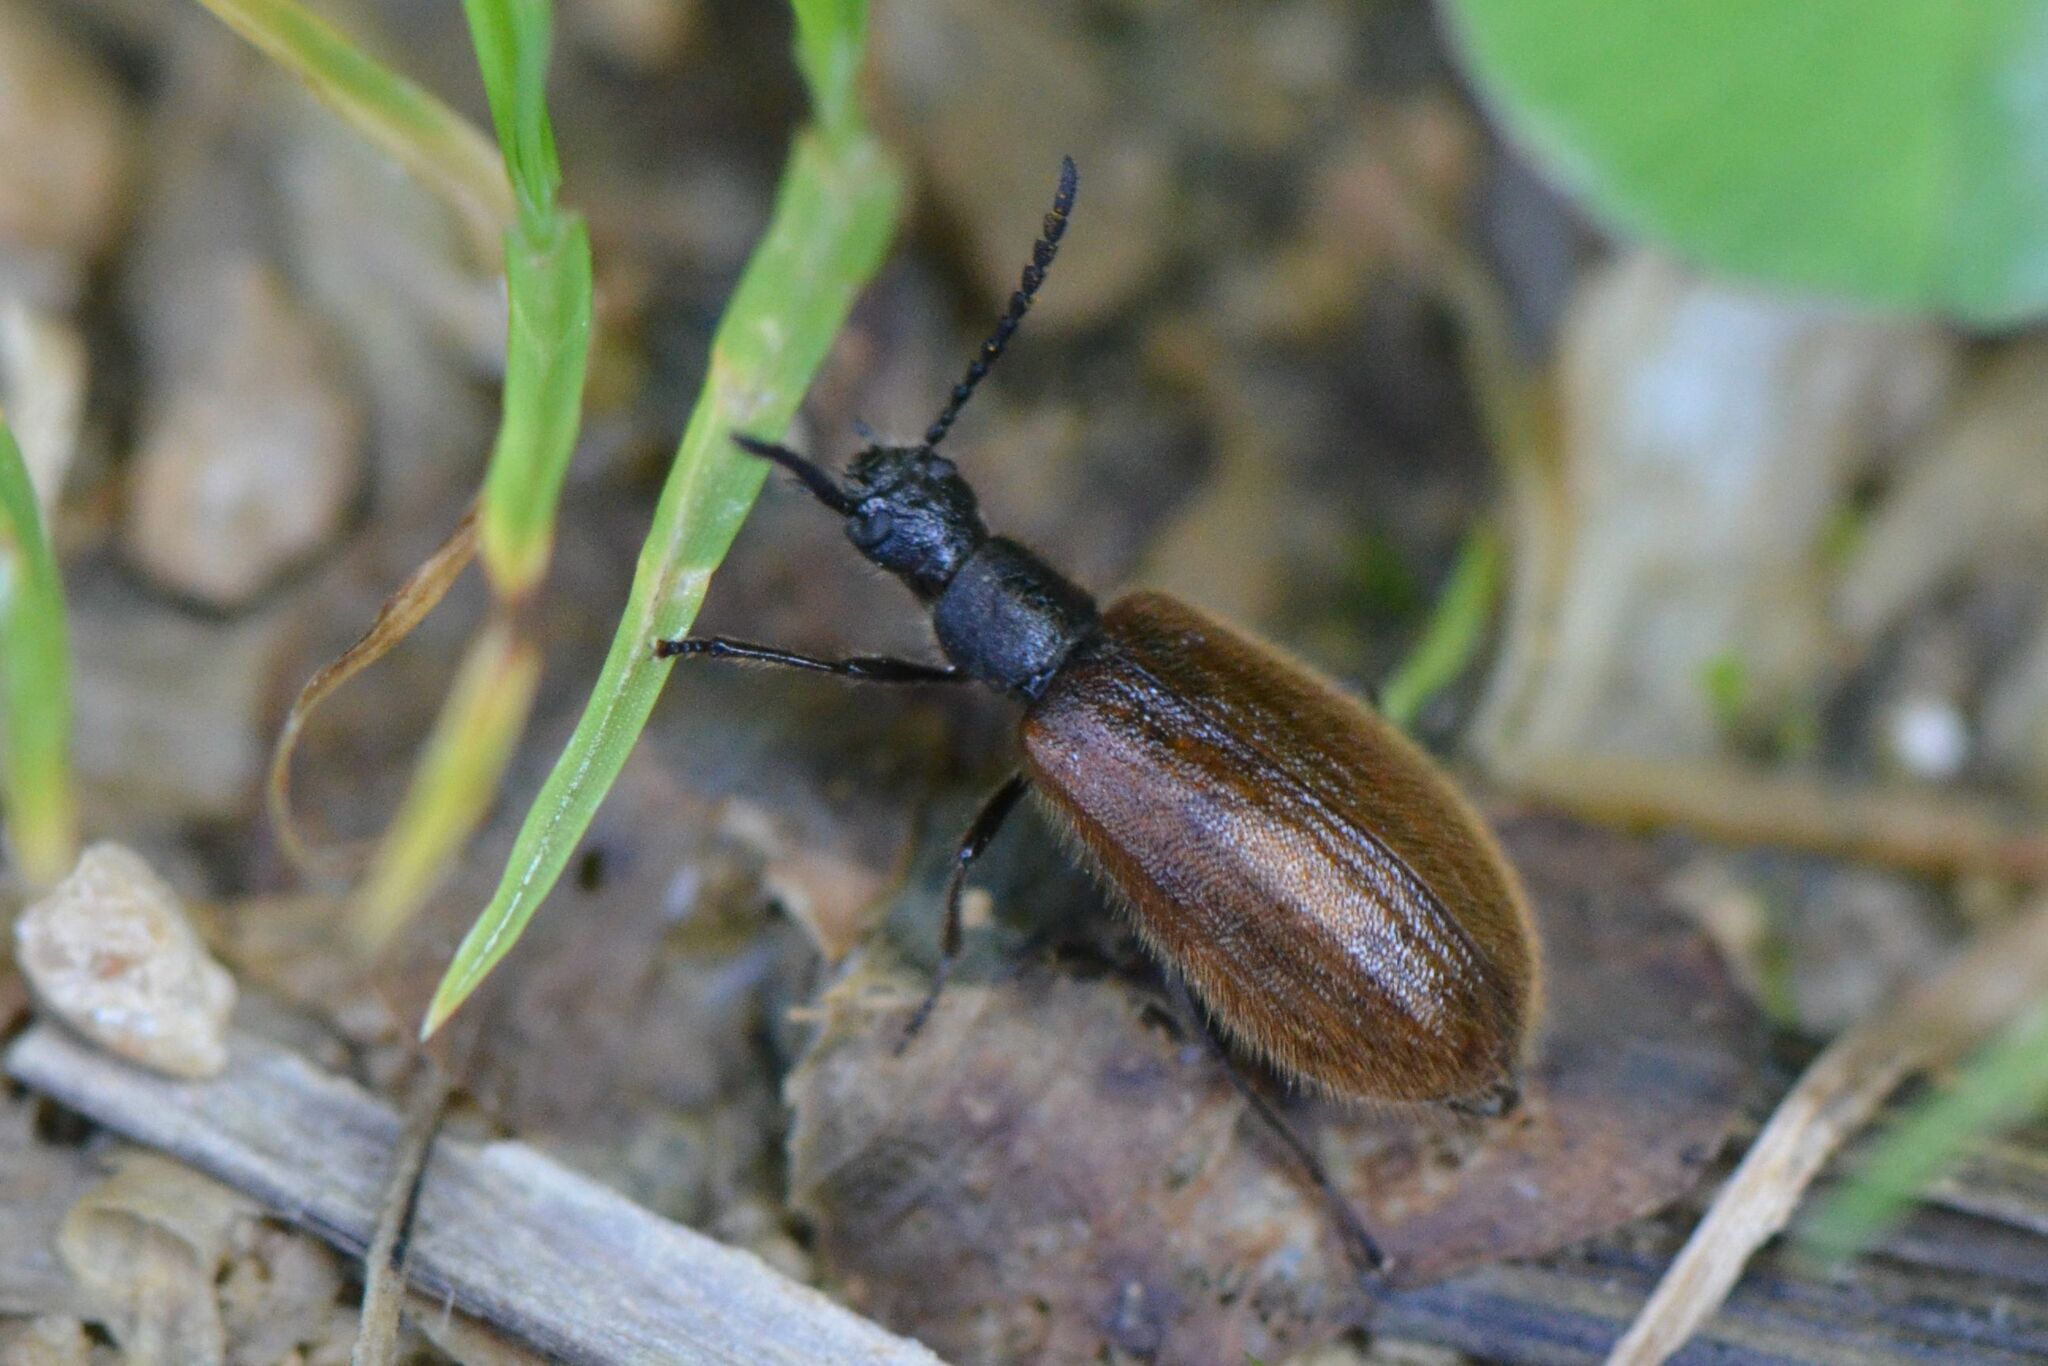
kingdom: Animalia
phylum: Arthropoda
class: Insecta
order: Coleoptera
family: Tenebrionidae
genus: Lagria
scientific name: Lagria hirta
